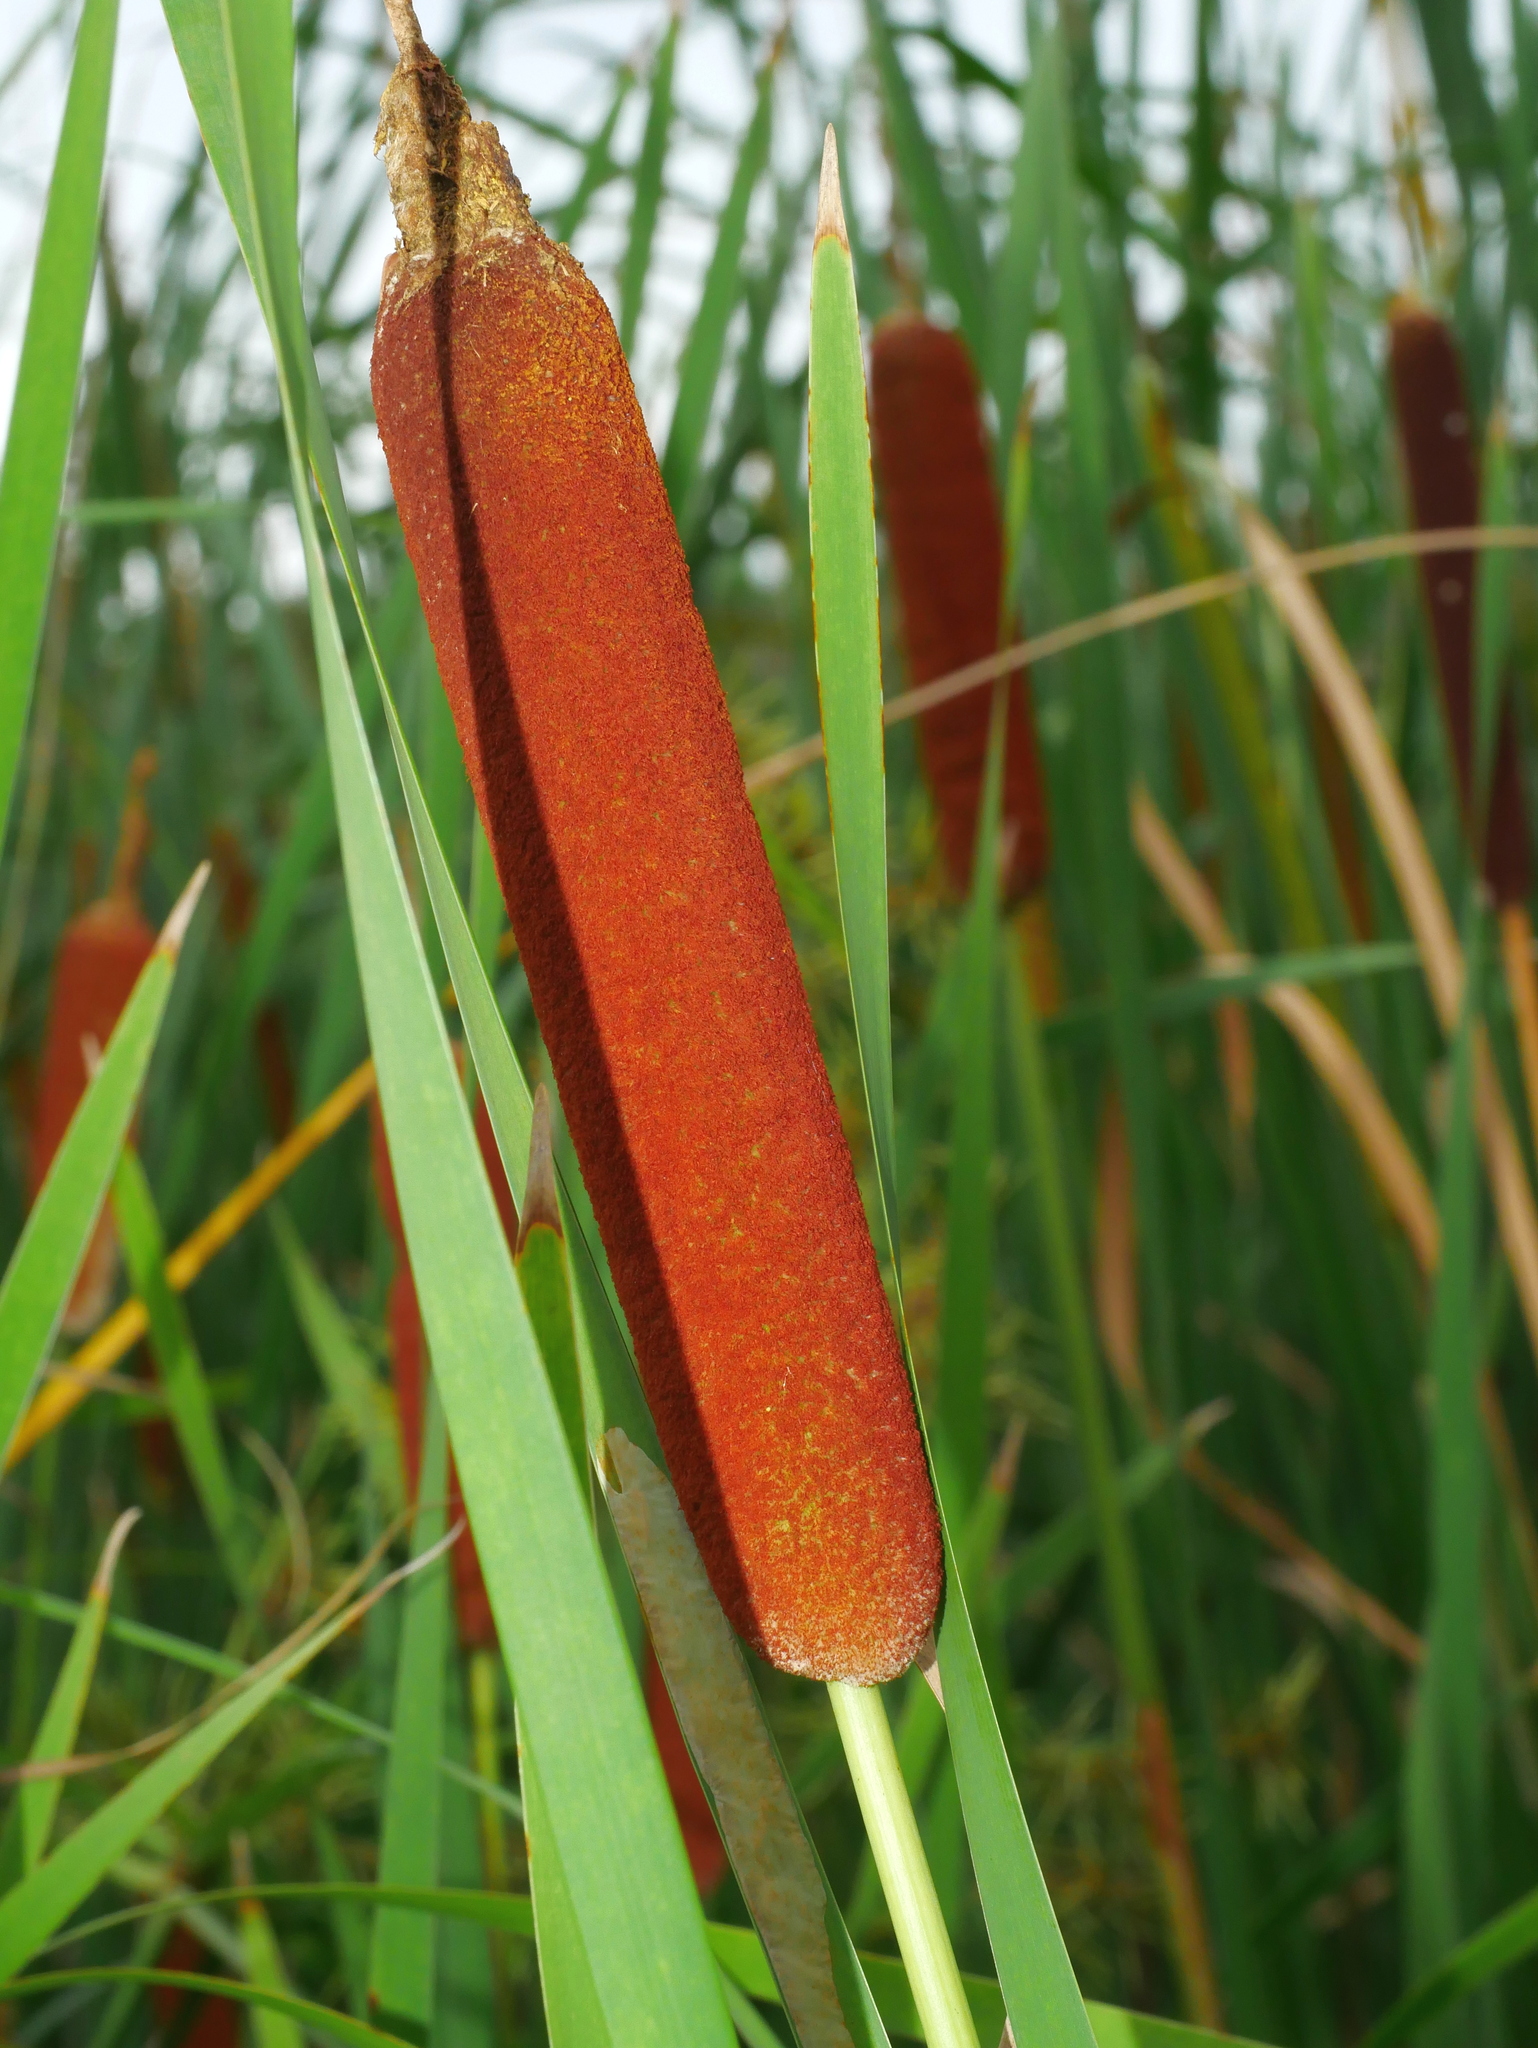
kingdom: Plantae
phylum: Tracheophyta
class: Liliopsida
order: Poales
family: Typhaceae
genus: Typha
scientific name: Typha orientalis
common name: Bullrush
